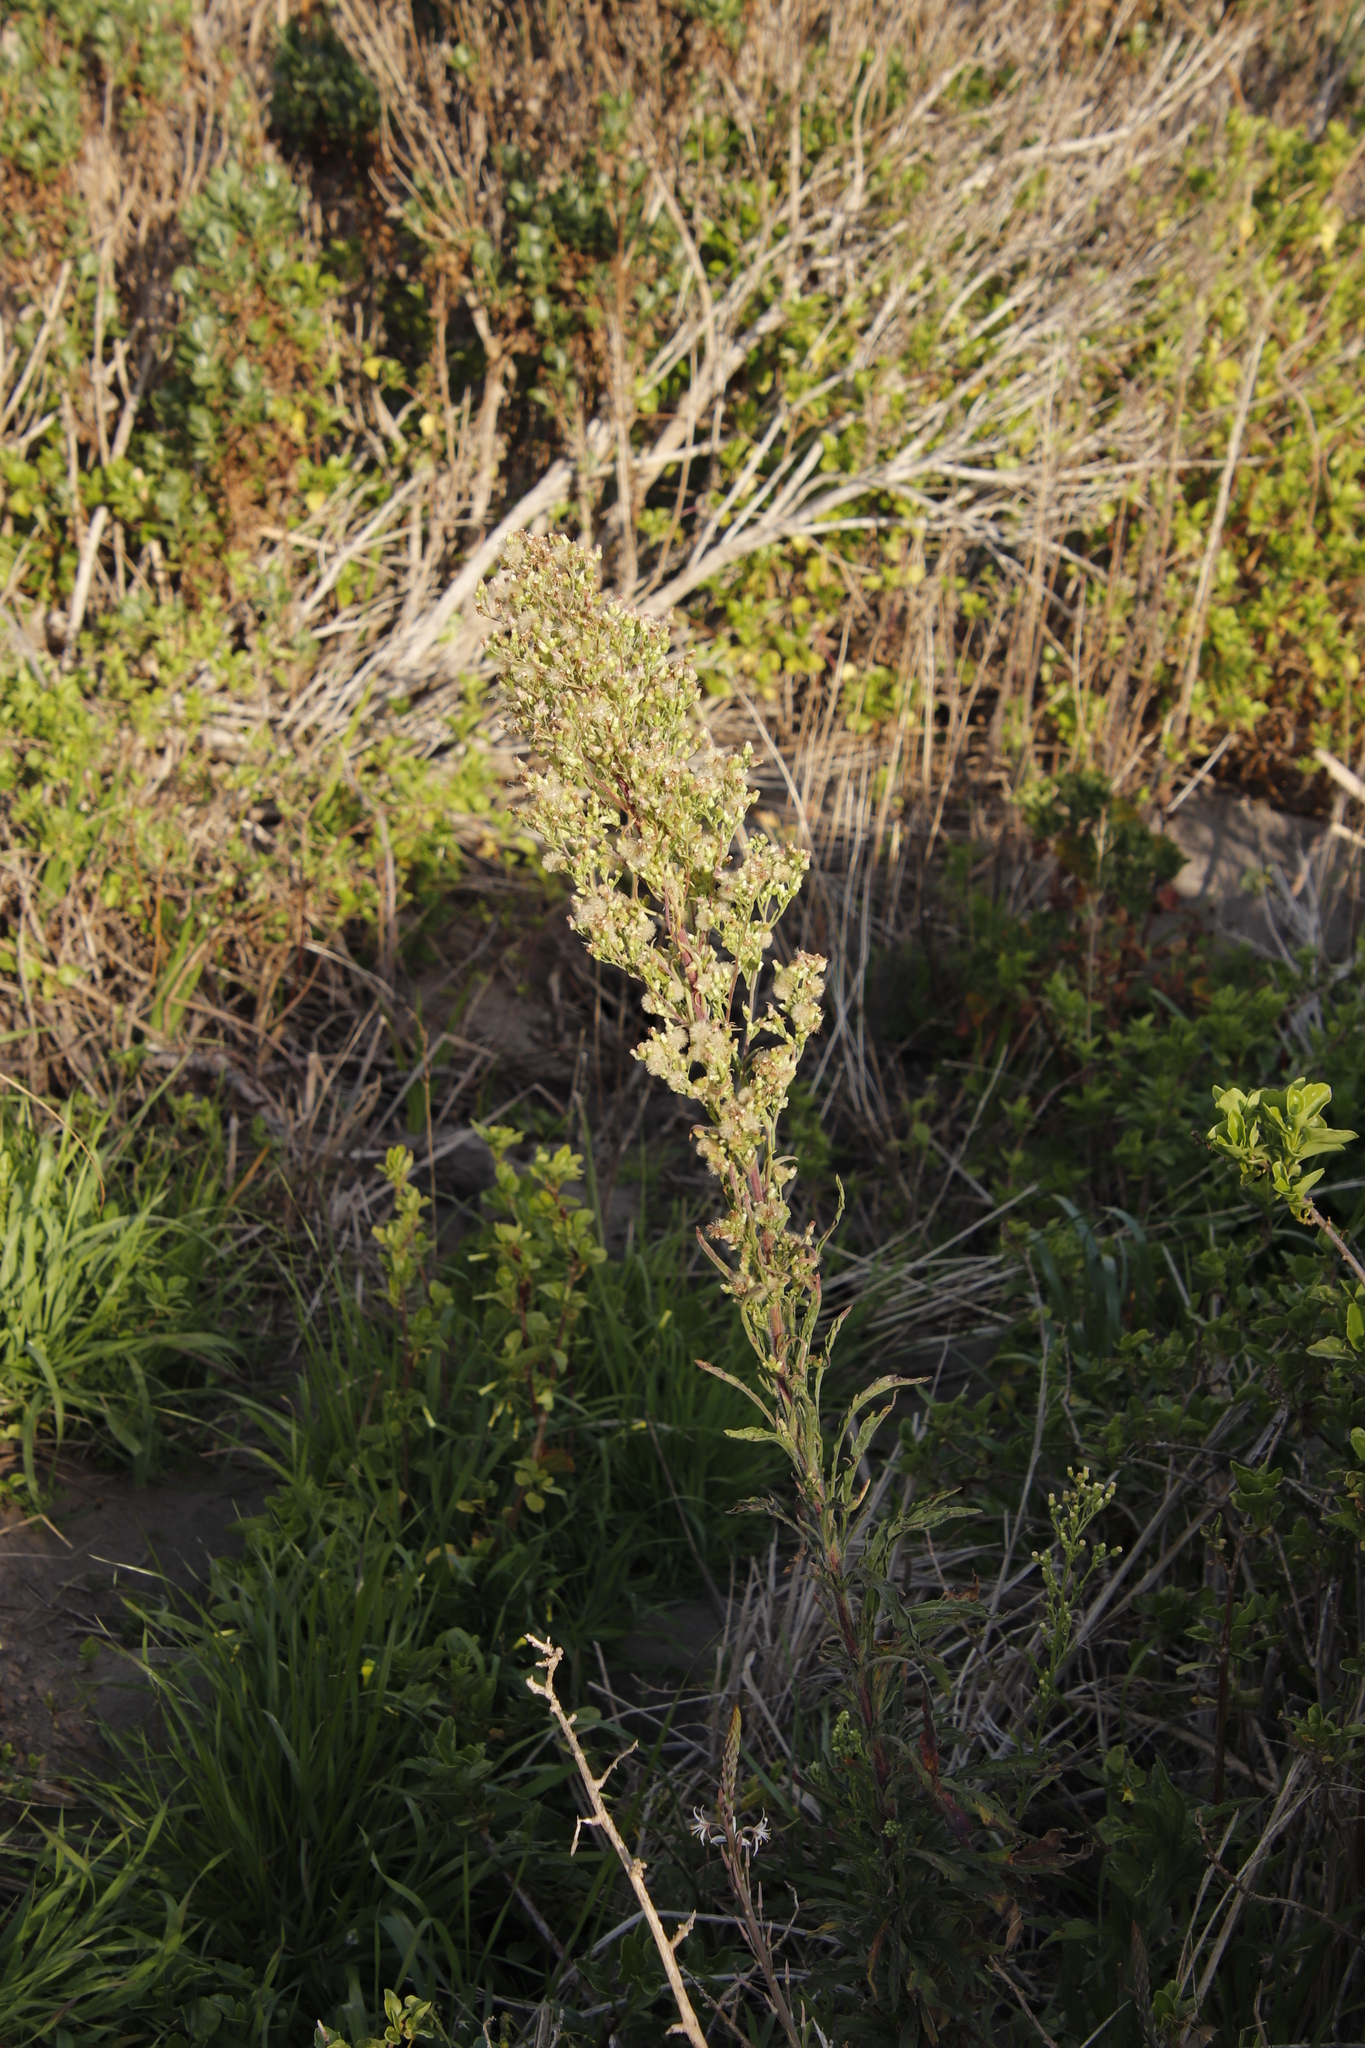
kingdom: Plantae
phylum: Tracheophyta
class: Magnoliopsida
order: Asterales
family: Asteraceae
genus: Erigeron
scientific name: Erigeron sumatrensis
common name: Daisy
